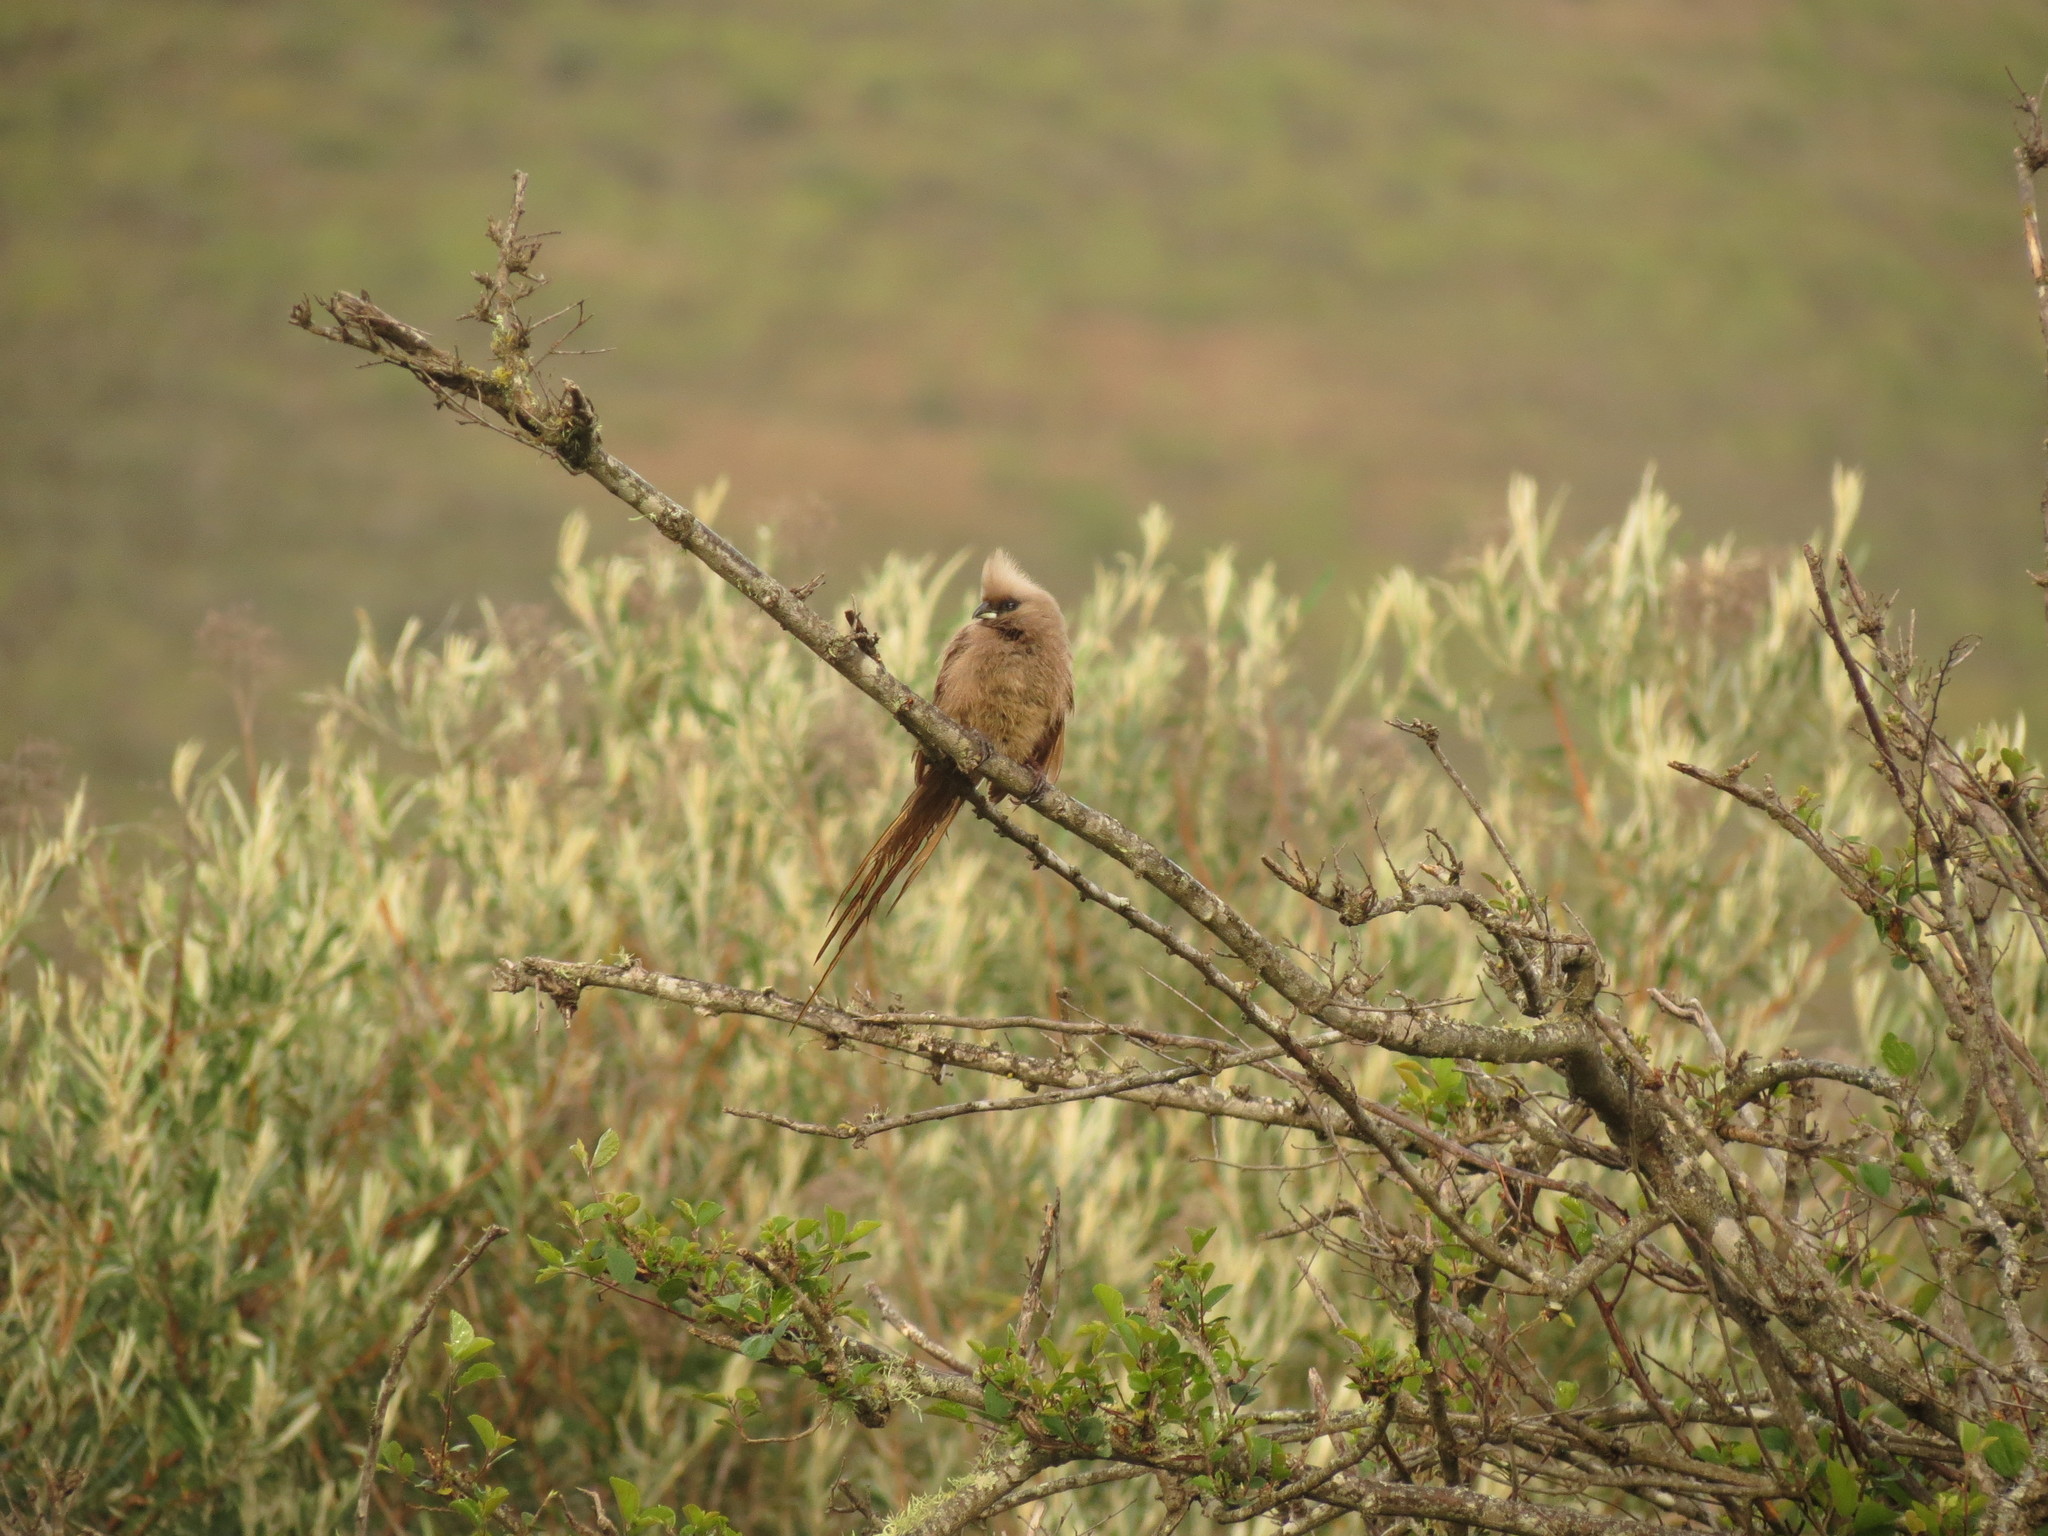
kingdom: Animalia
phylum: Chordata
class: Aves
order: Coliiformes
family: Coliidae
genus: Colius
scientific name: Colius striatus
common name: Speckled mousebird
